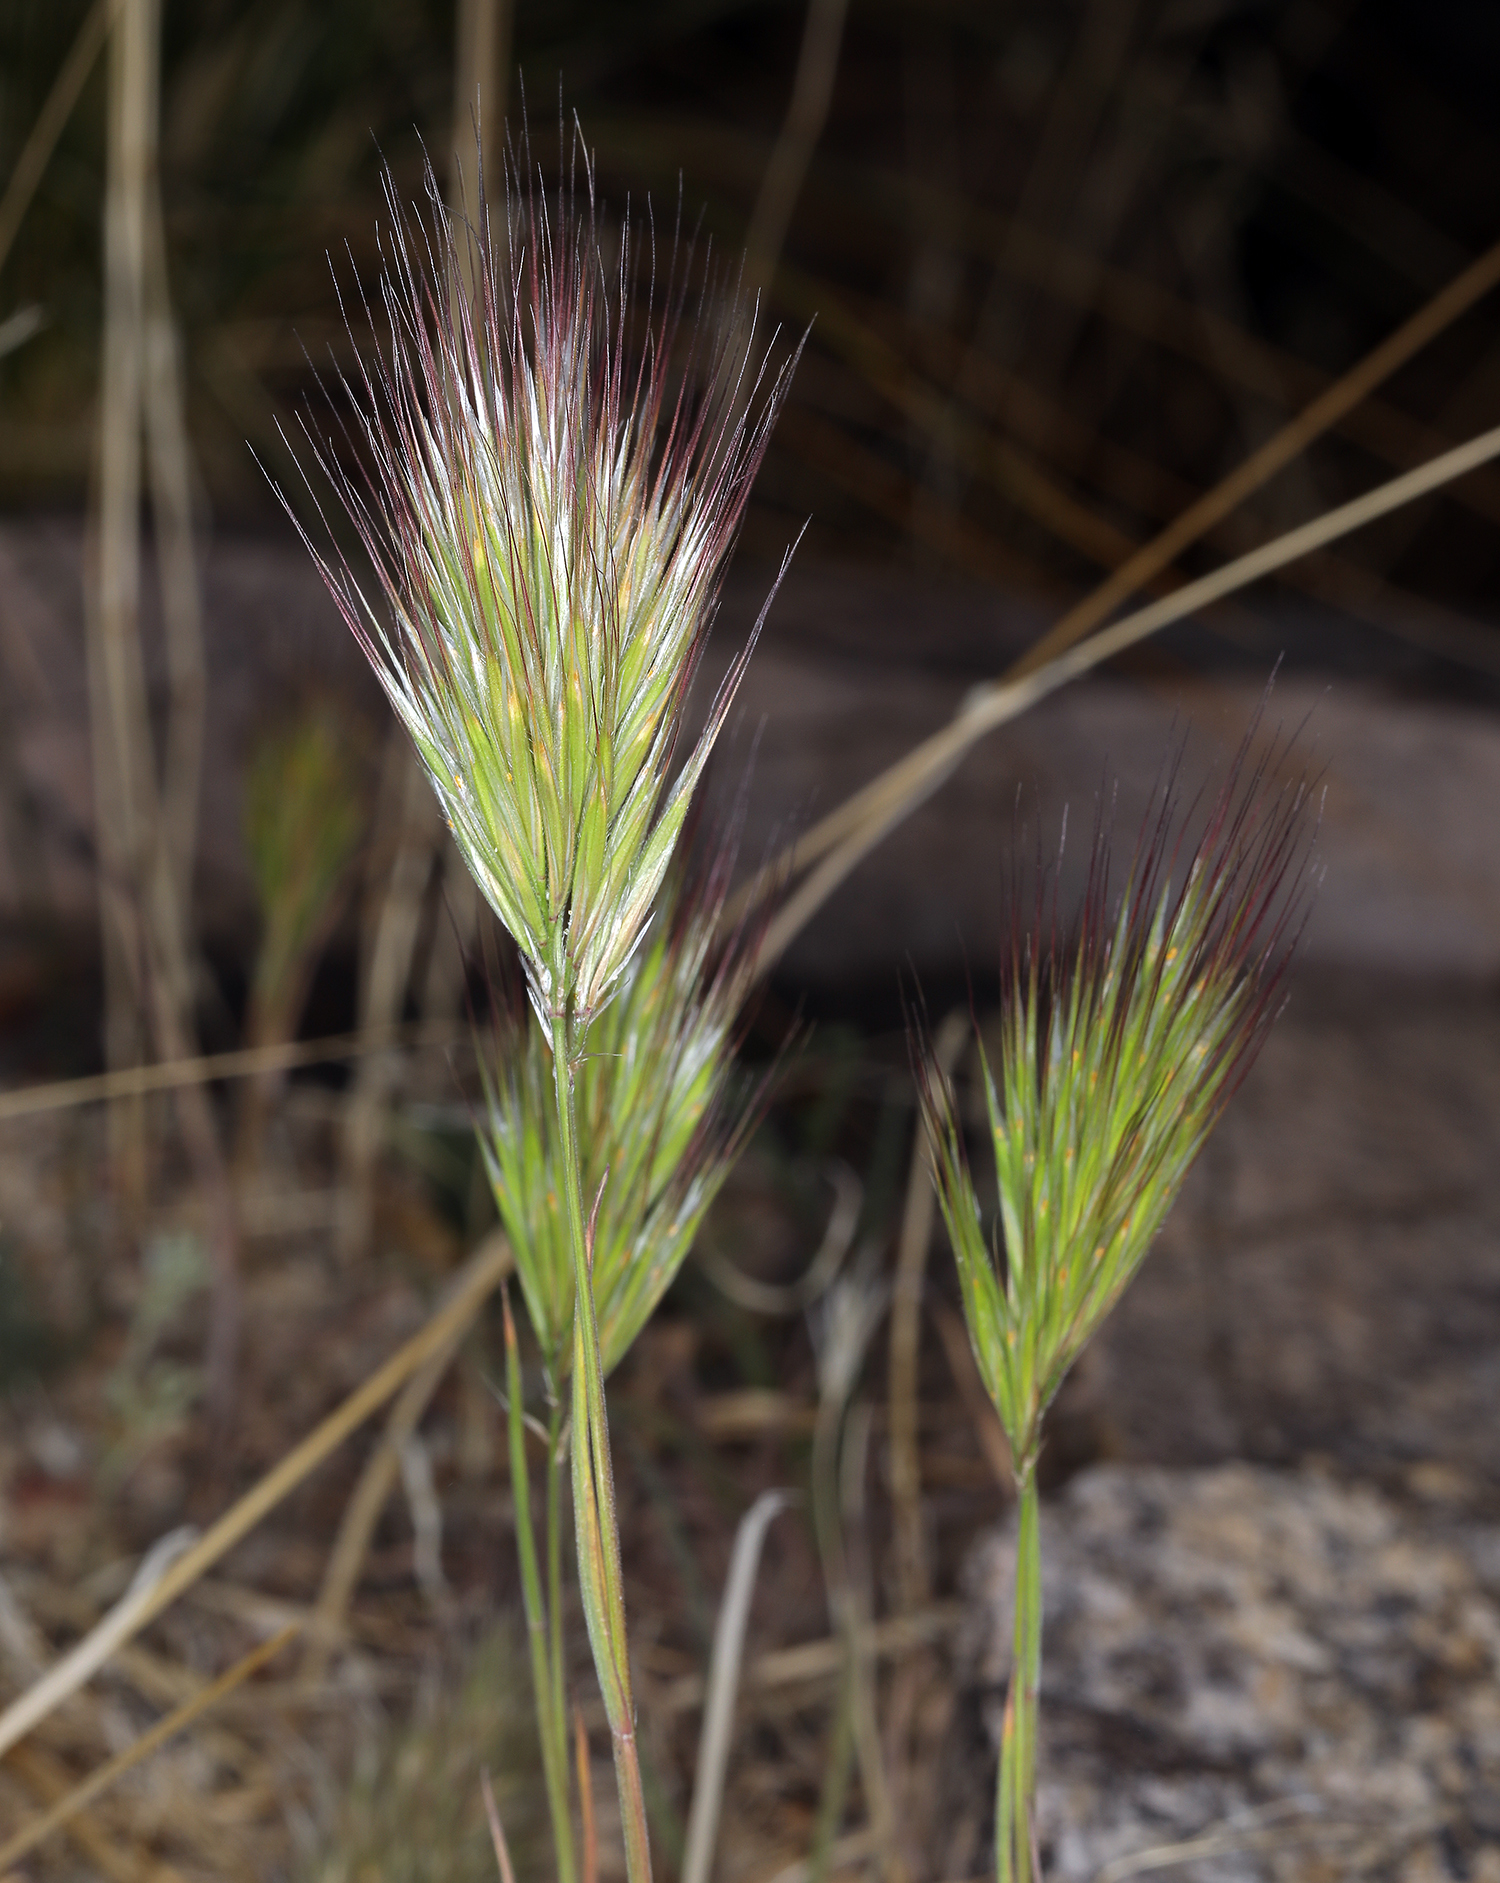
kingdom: Plantae
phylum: Tracheophyta
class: Liliopsida
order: Poales
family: Poaceae
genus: Bromus
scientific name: Bromus rubens
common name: Red brome
